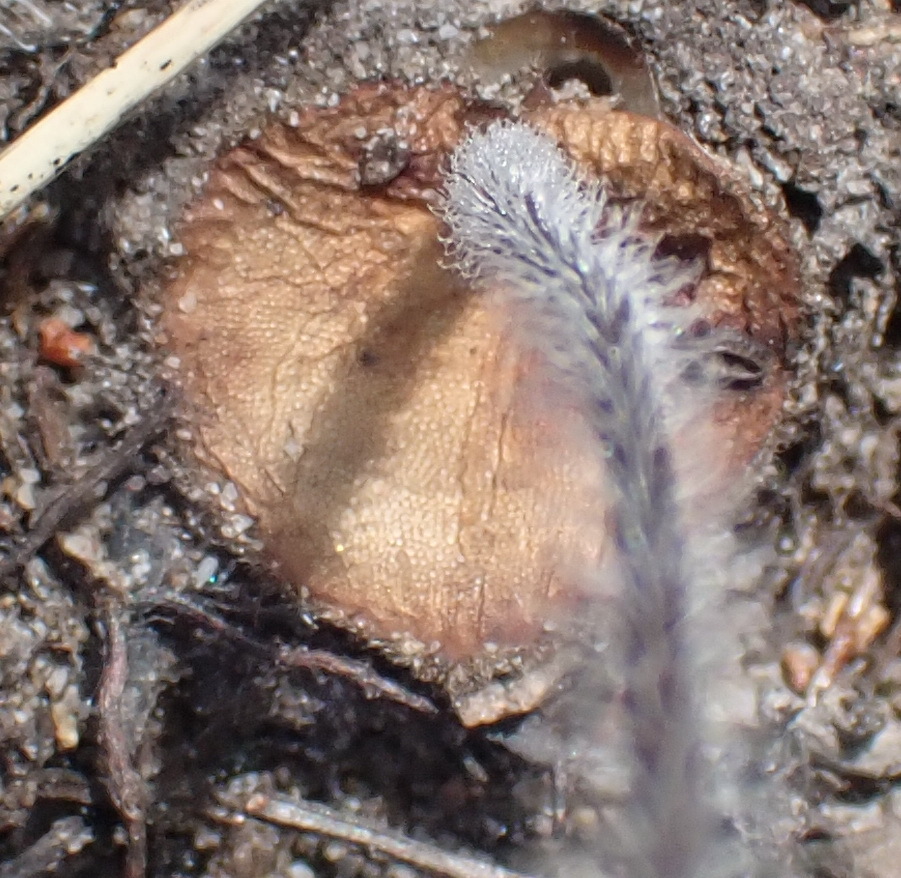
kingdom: Plantae
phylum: Tracheophyta
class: Liliopsida
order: Asparagales
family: Orchidaceae
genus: Holothrix
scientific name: Holothrix etheliae
